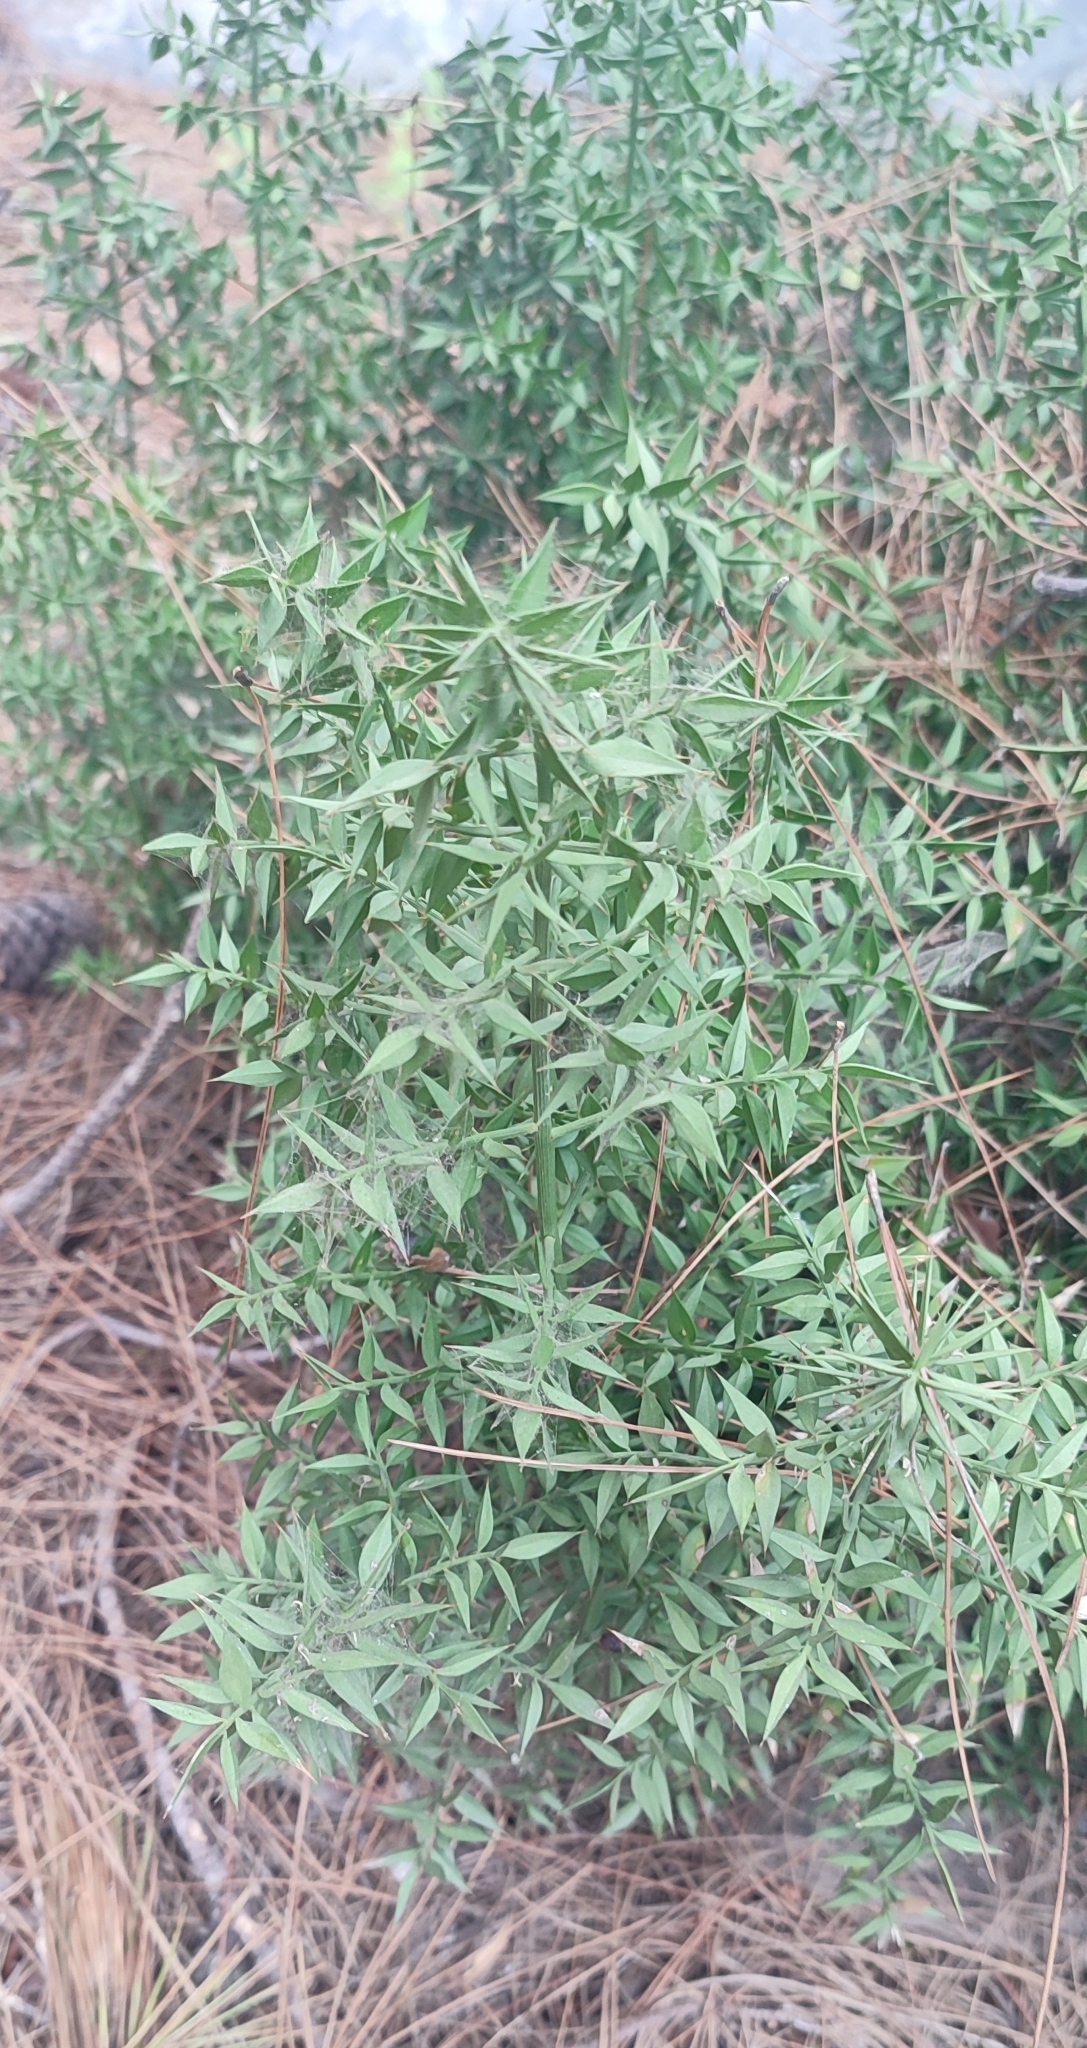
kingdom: Plantae
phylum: Tracheophyta
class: Liliopsida
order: Asparagales
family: Asparagaceae
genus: Ruscus
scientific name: Ruscus aculeatus
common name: Butcher's-broom
